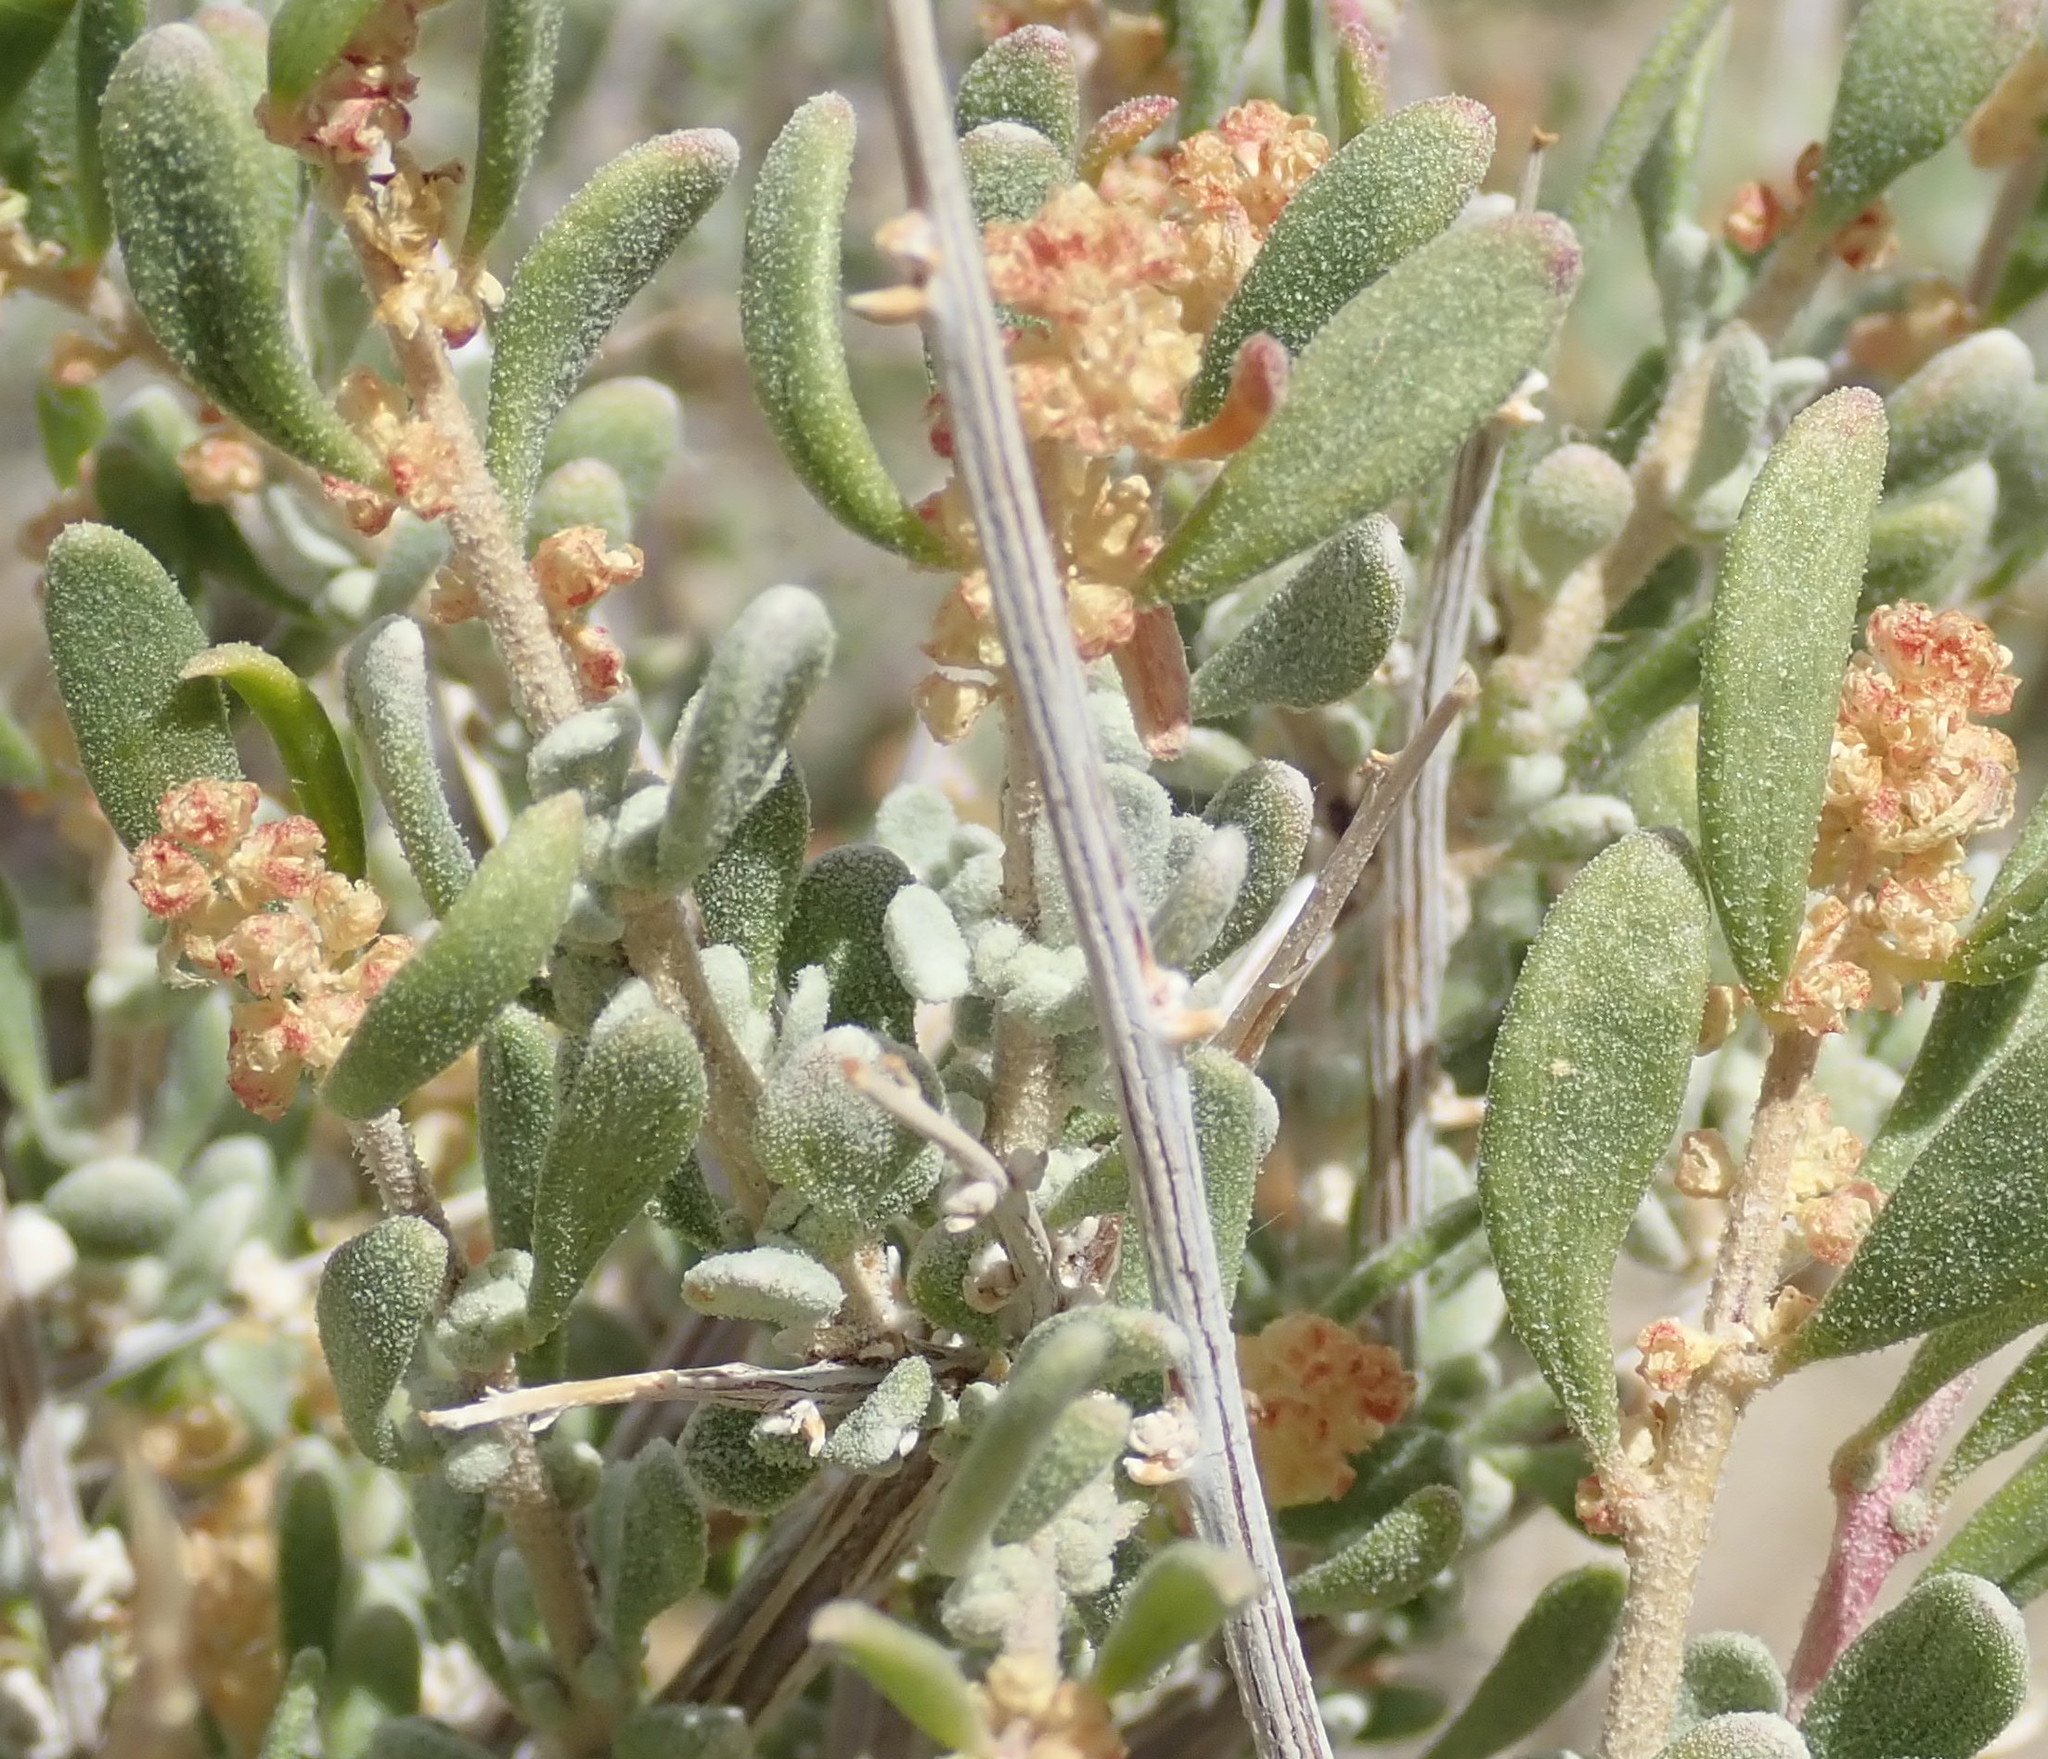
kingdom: Plantae
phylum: Tracheophyta
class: Magnoliopsida
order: Caryophyllales
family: Amaranthaceae
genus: Grayia
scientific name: Grayia spinosa
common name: Spiny hopsage
